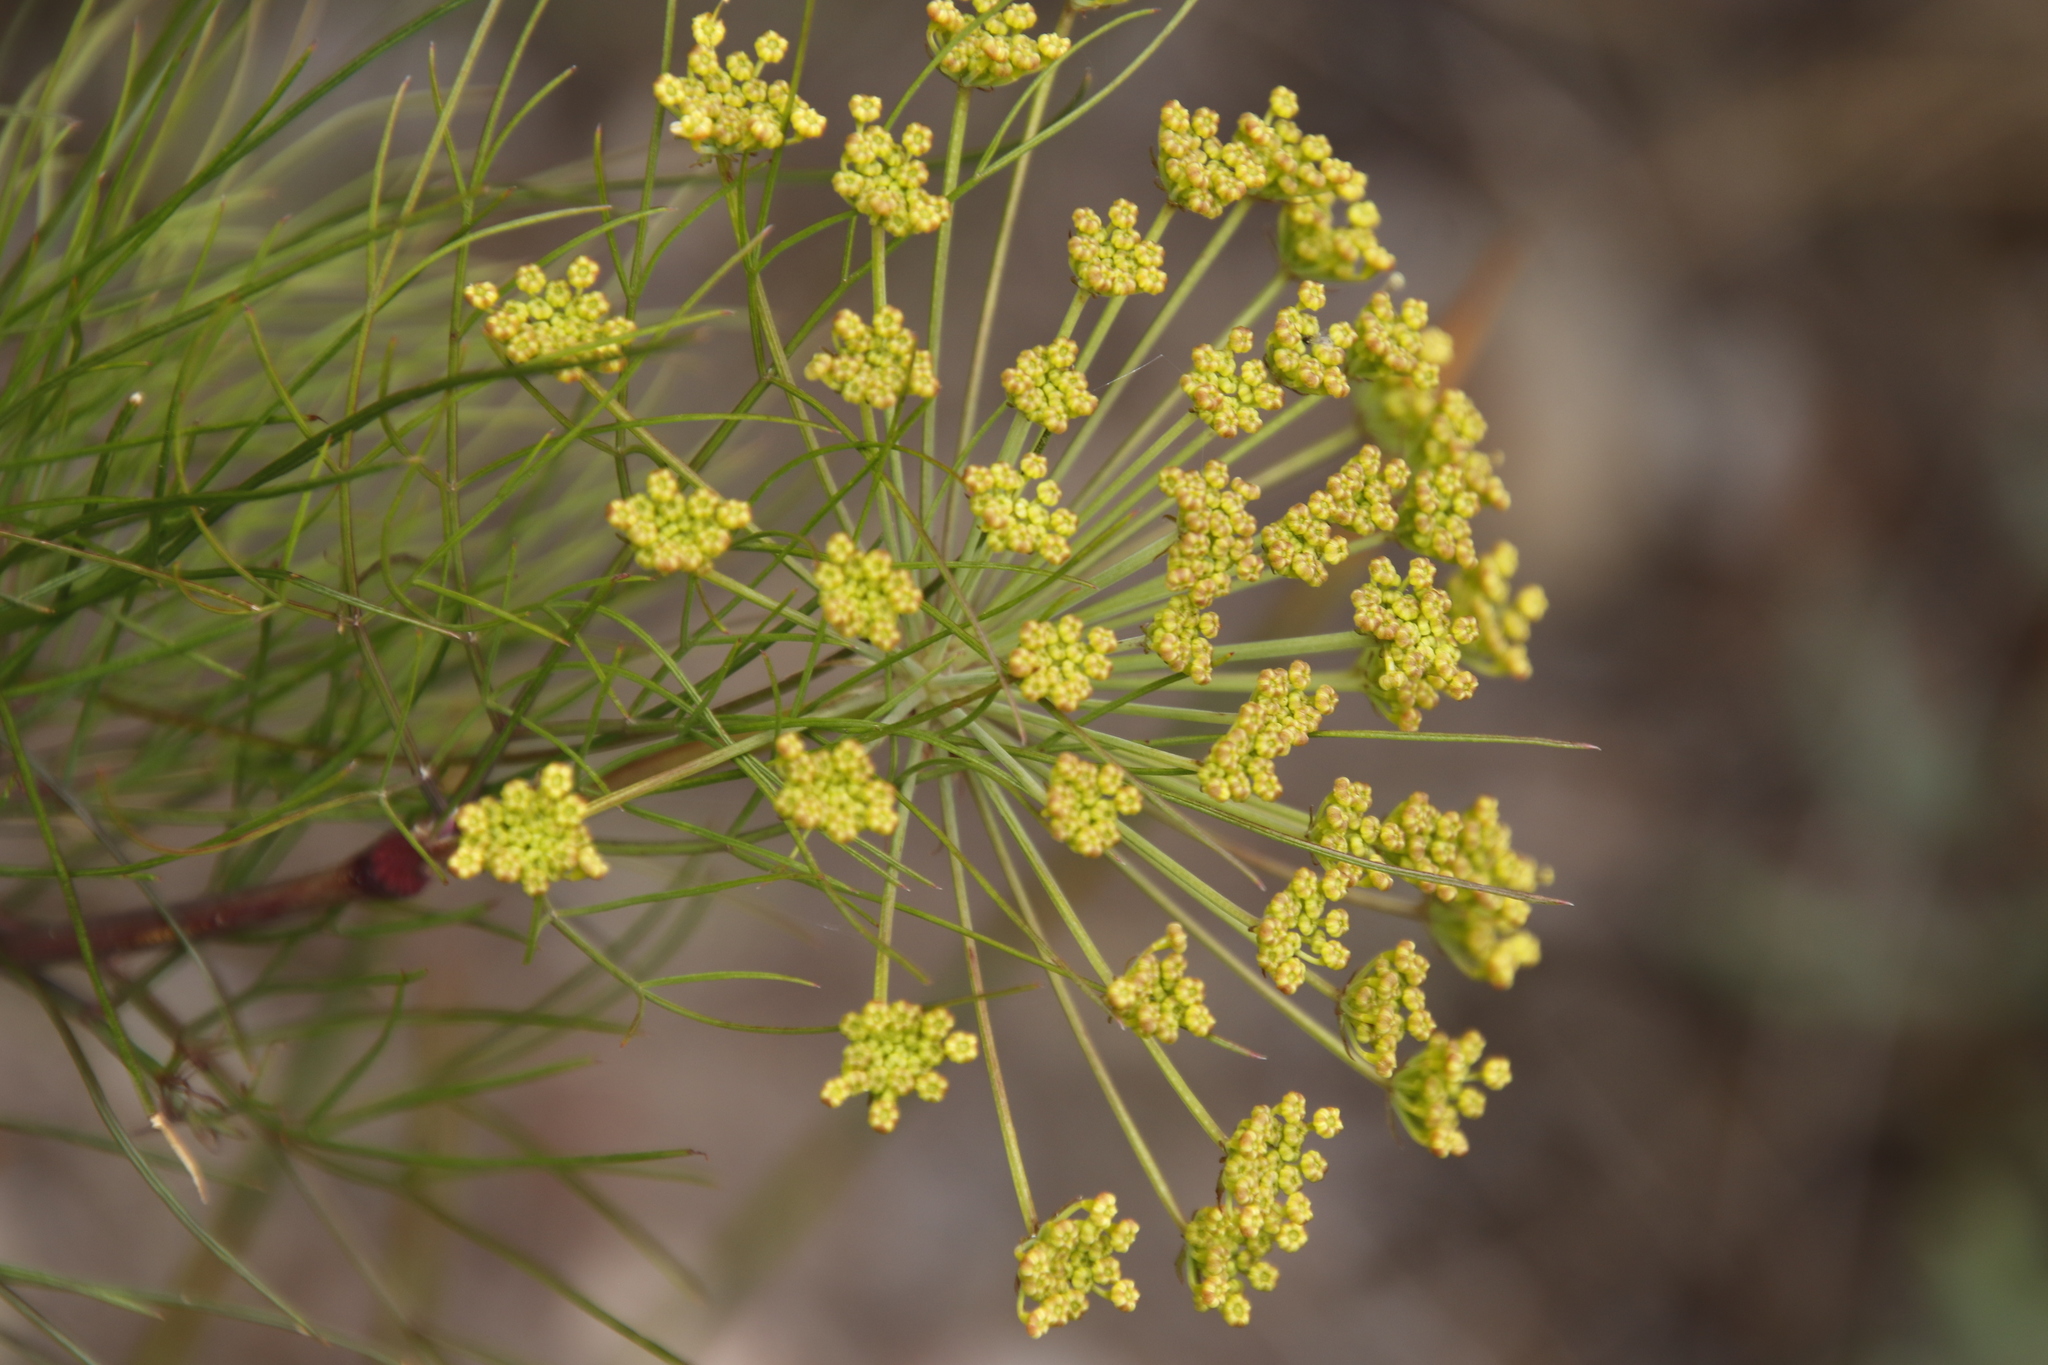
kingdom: Plantae
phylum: Tracheophyta
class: Magnoliopsida
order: Apiales
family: Apiaceae
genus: Notobubon
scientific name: Notobubon tenuifolium
